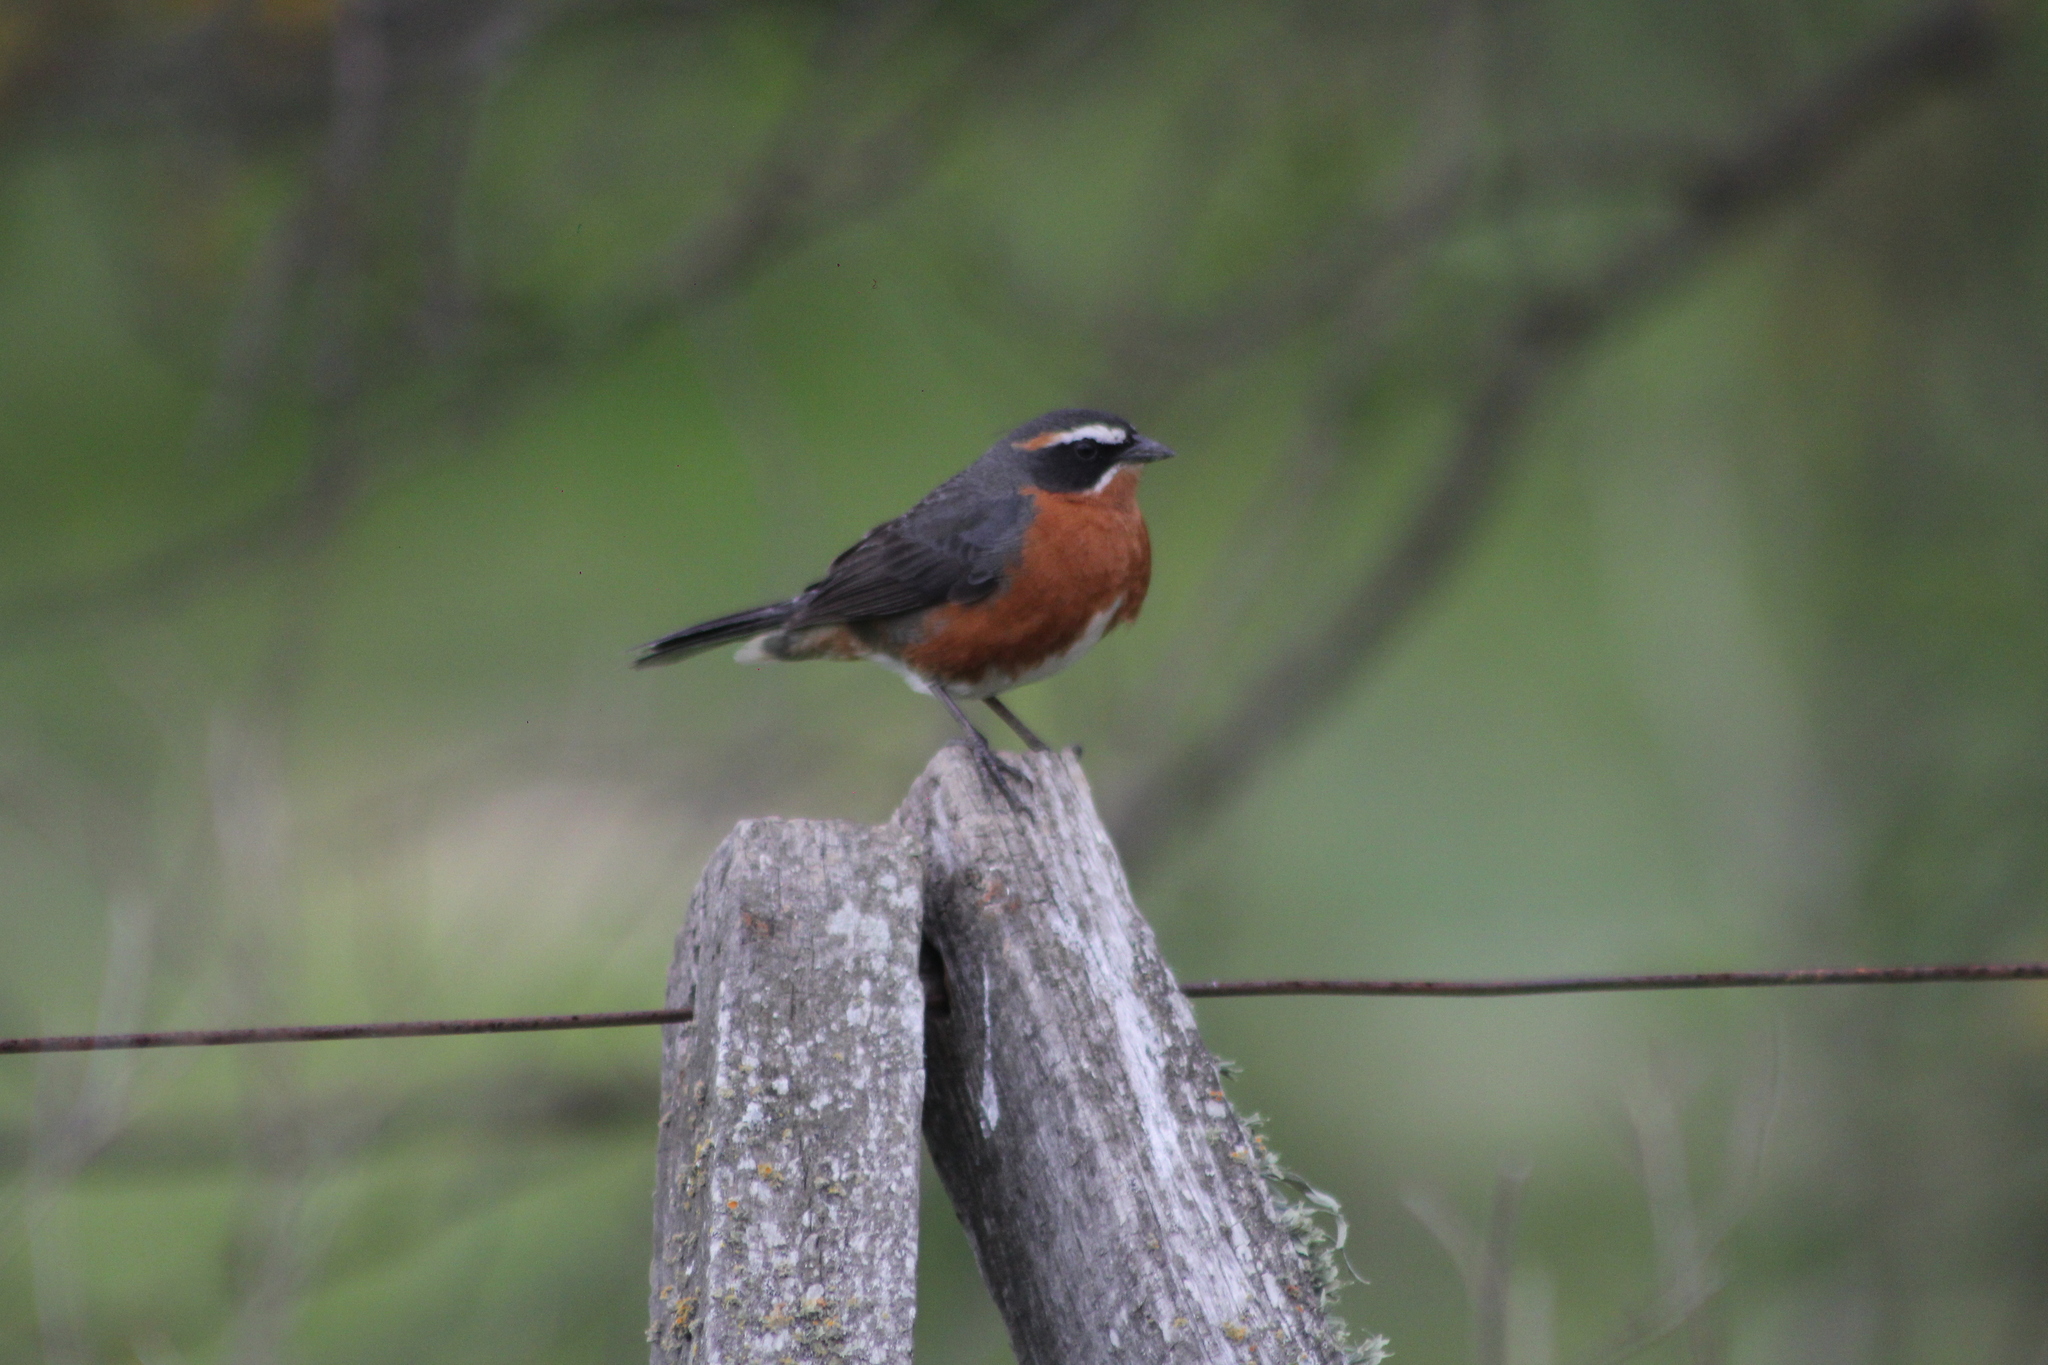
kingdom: Animalia
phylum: Chordata
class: Aves
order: Passeriformes
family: Thraupidae
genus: Poospiza
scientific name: Poospiza nigrorufa
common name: Black-and-rufous warbling finch
